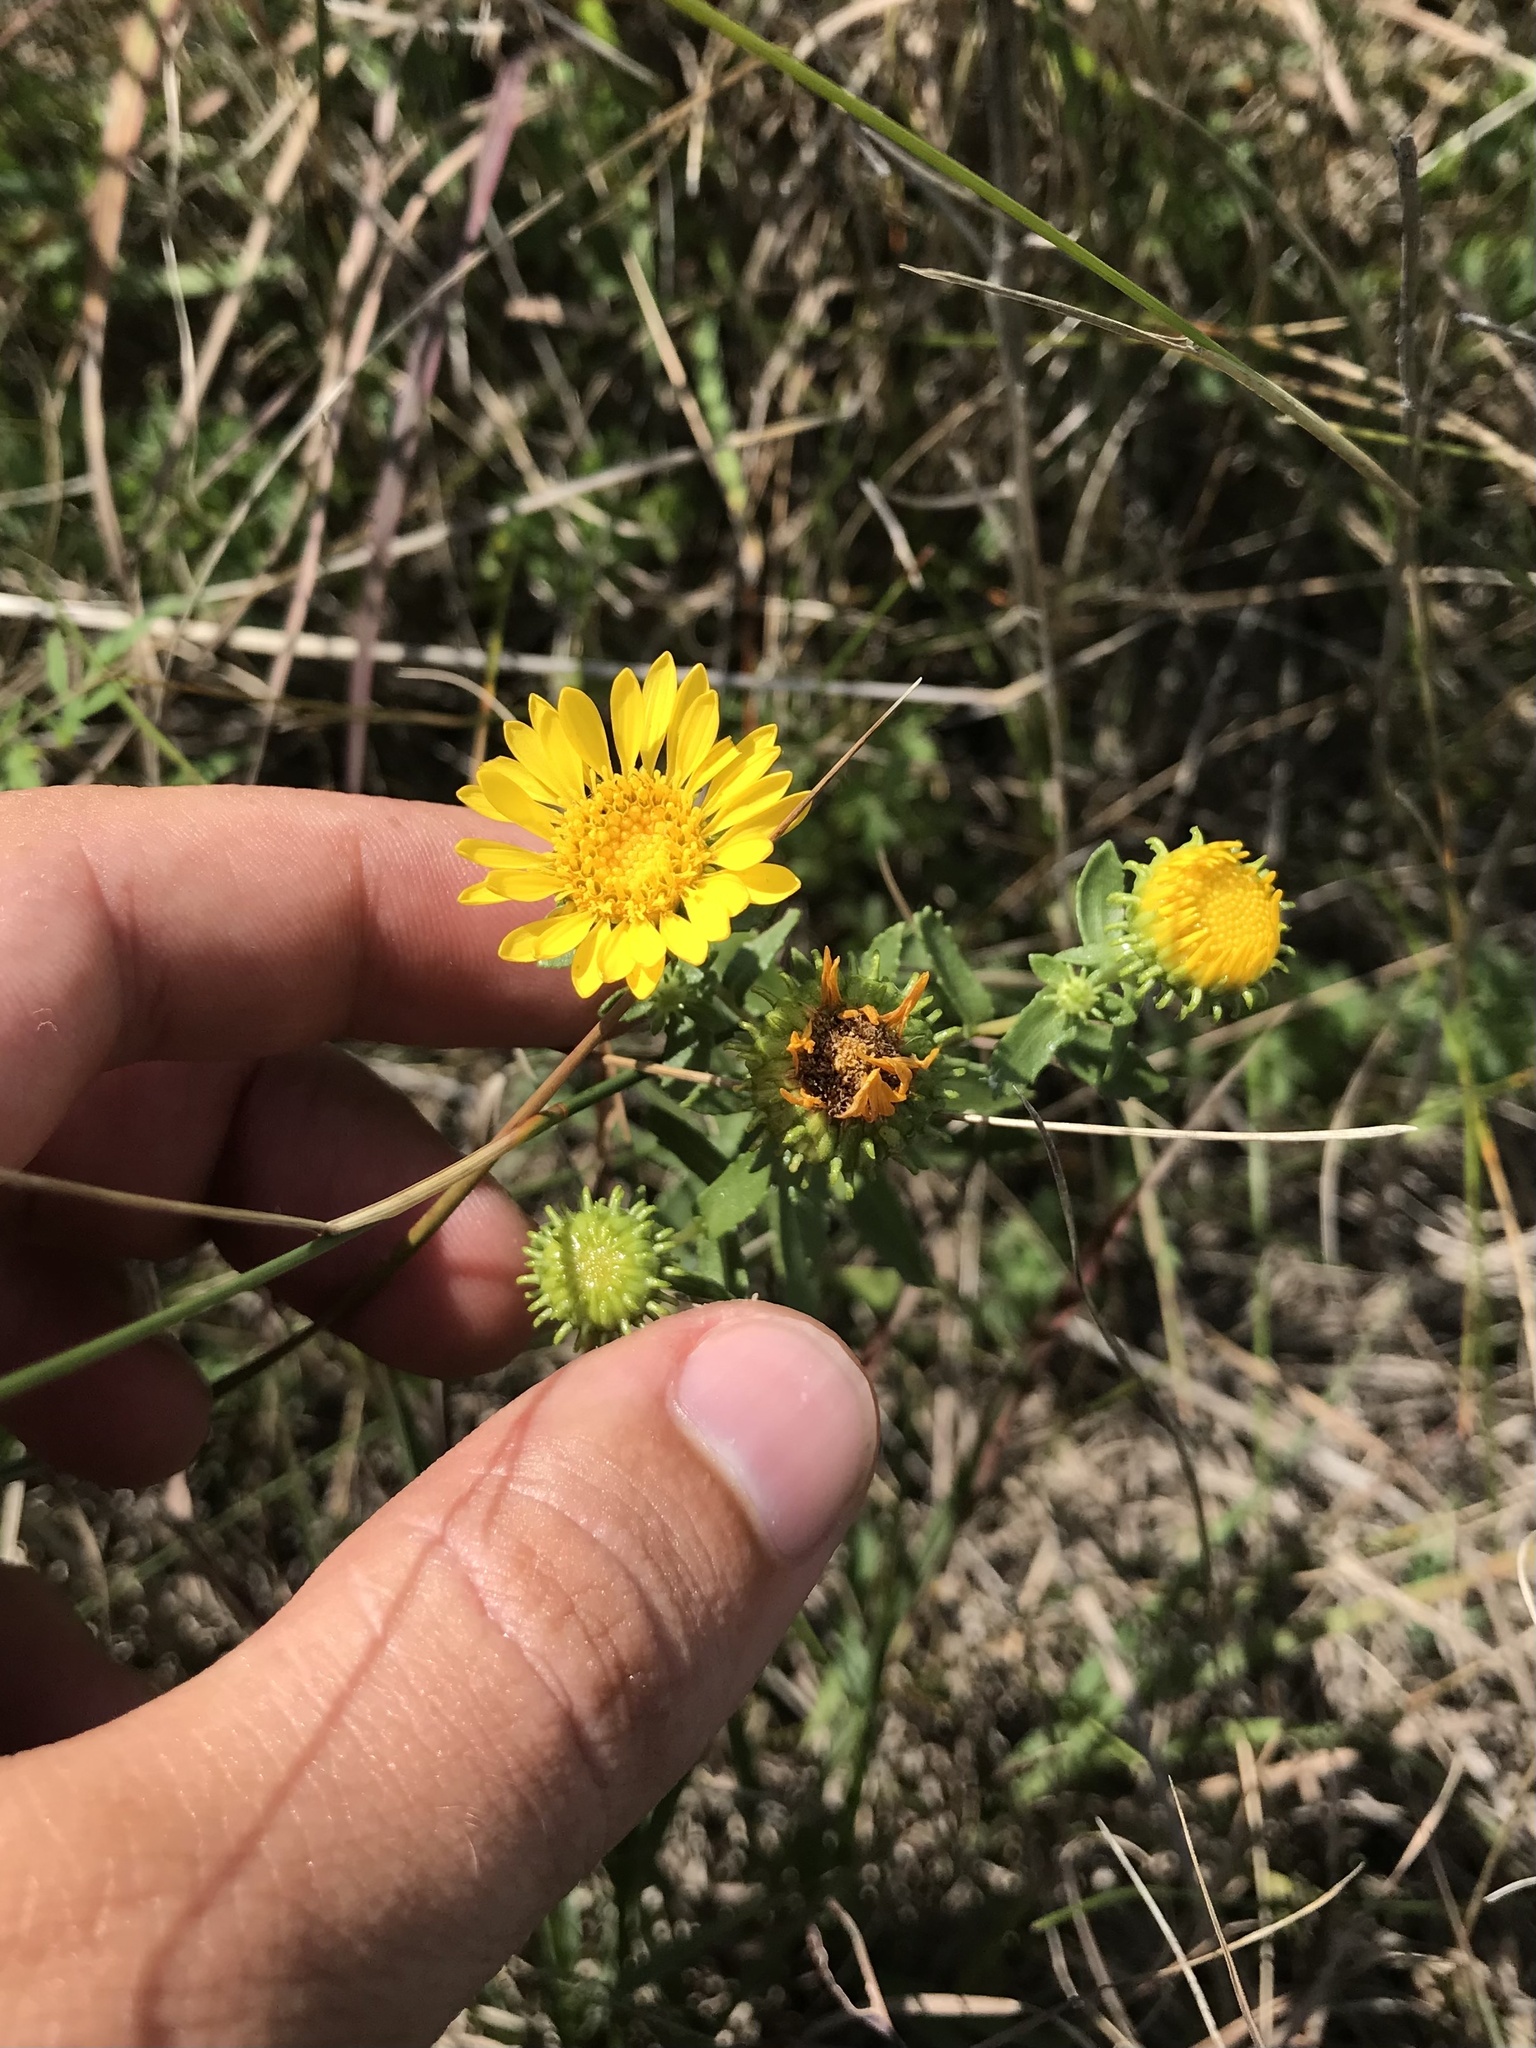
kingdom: Plantae
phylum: Tracheophyta
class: Magnoliopsida
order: Asterales
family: Asteraceae
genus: Grindelia
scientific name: Grindelia squarrosa
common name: Curly-cup gumweed
